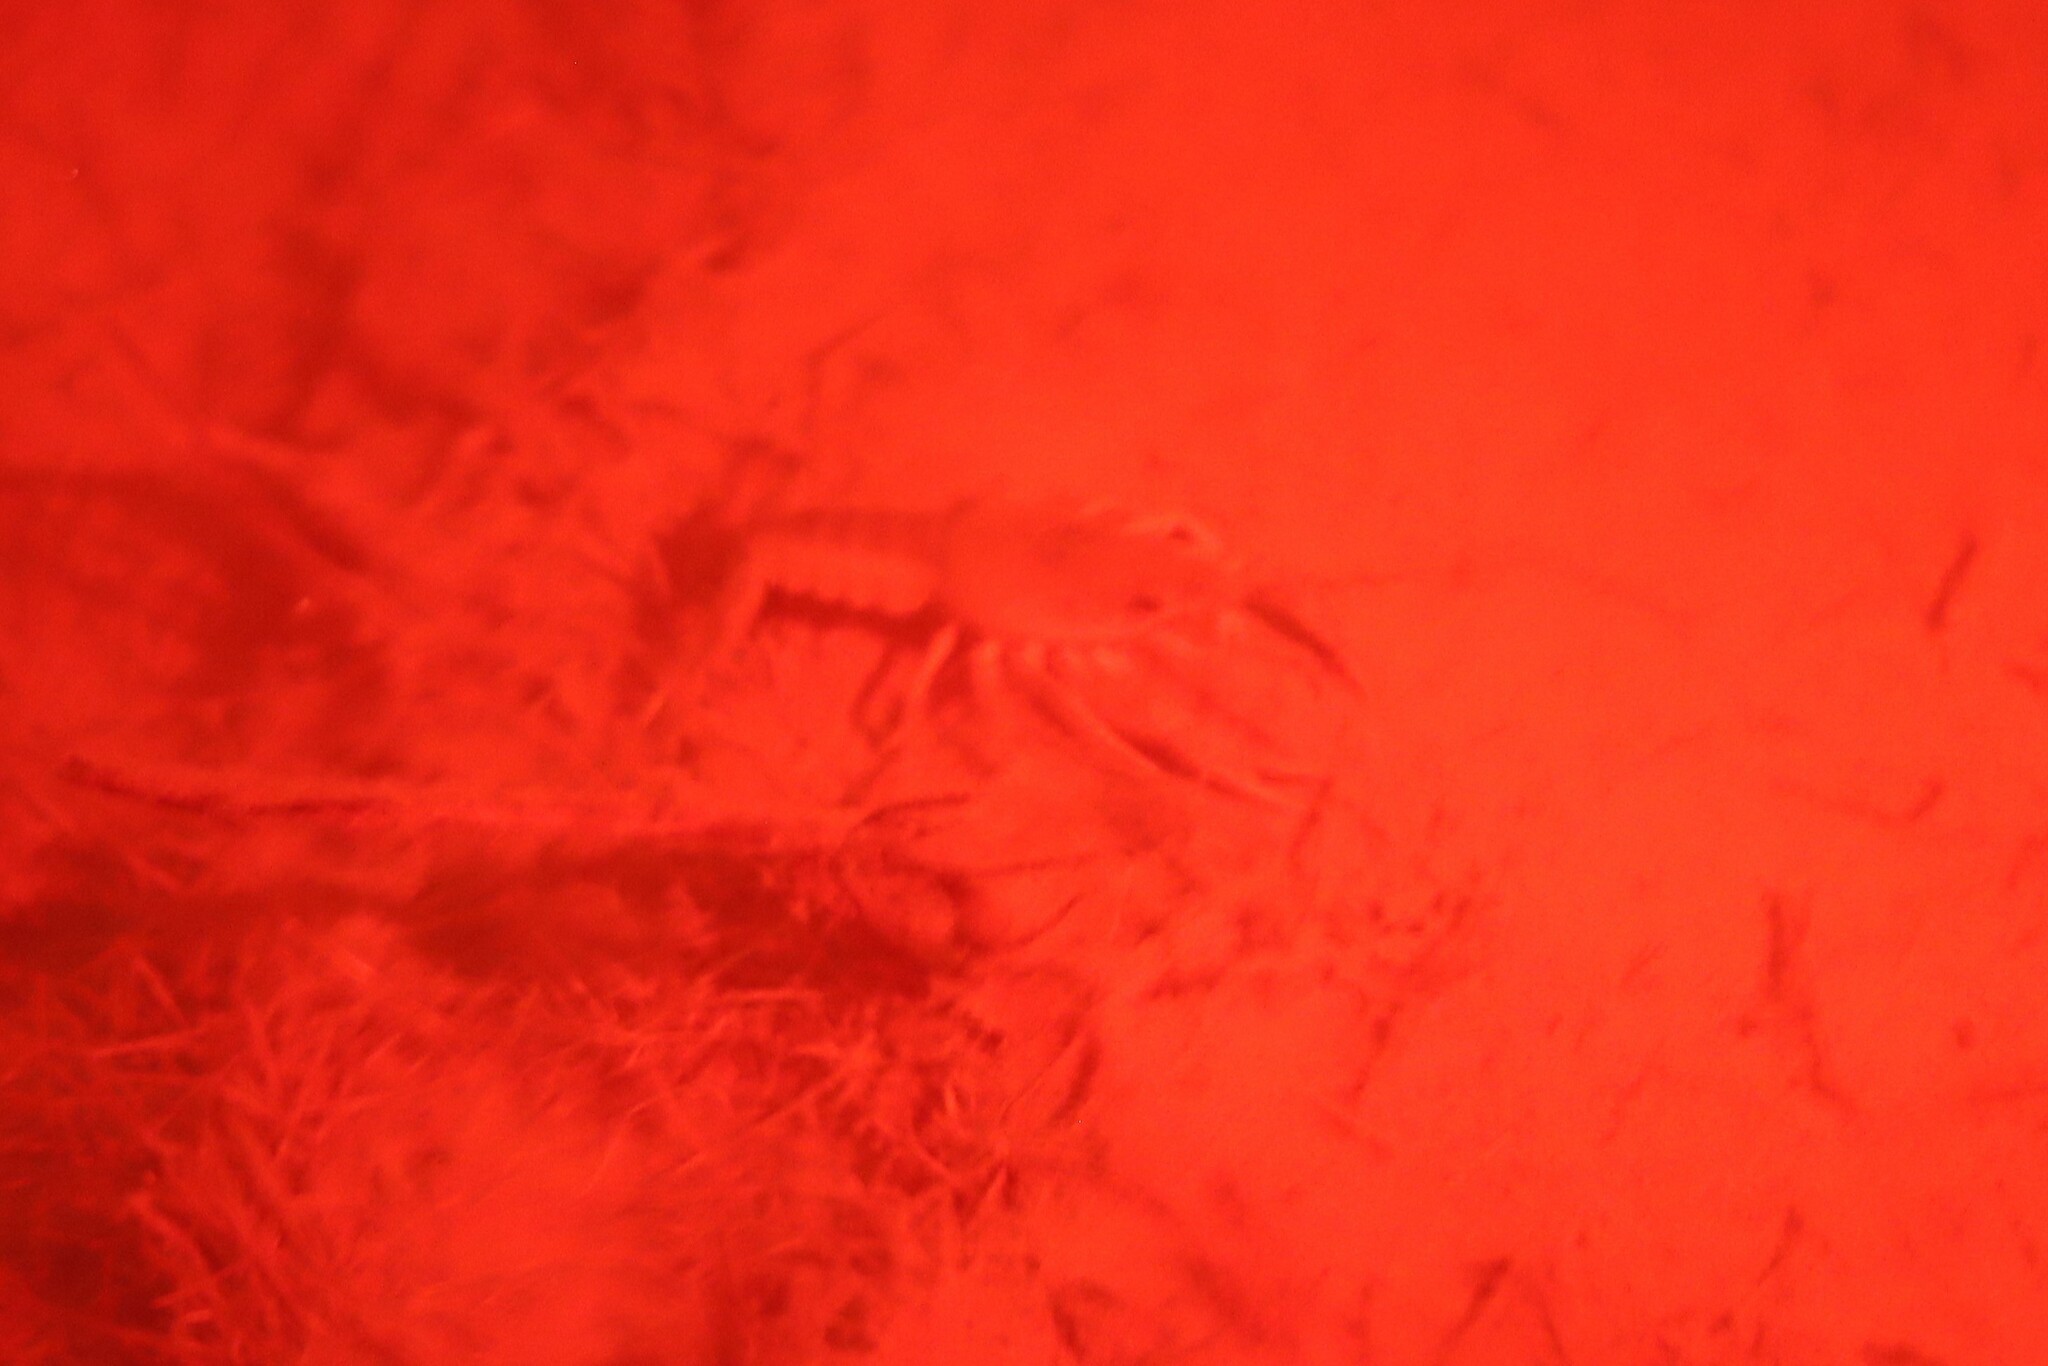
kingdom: Animalia
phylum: Arthropoda
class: Malacostraca
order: Decapoda
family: Cambaridae
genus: Procambarus
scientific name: Procambarus clarkii
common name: Red swamp crayfish
